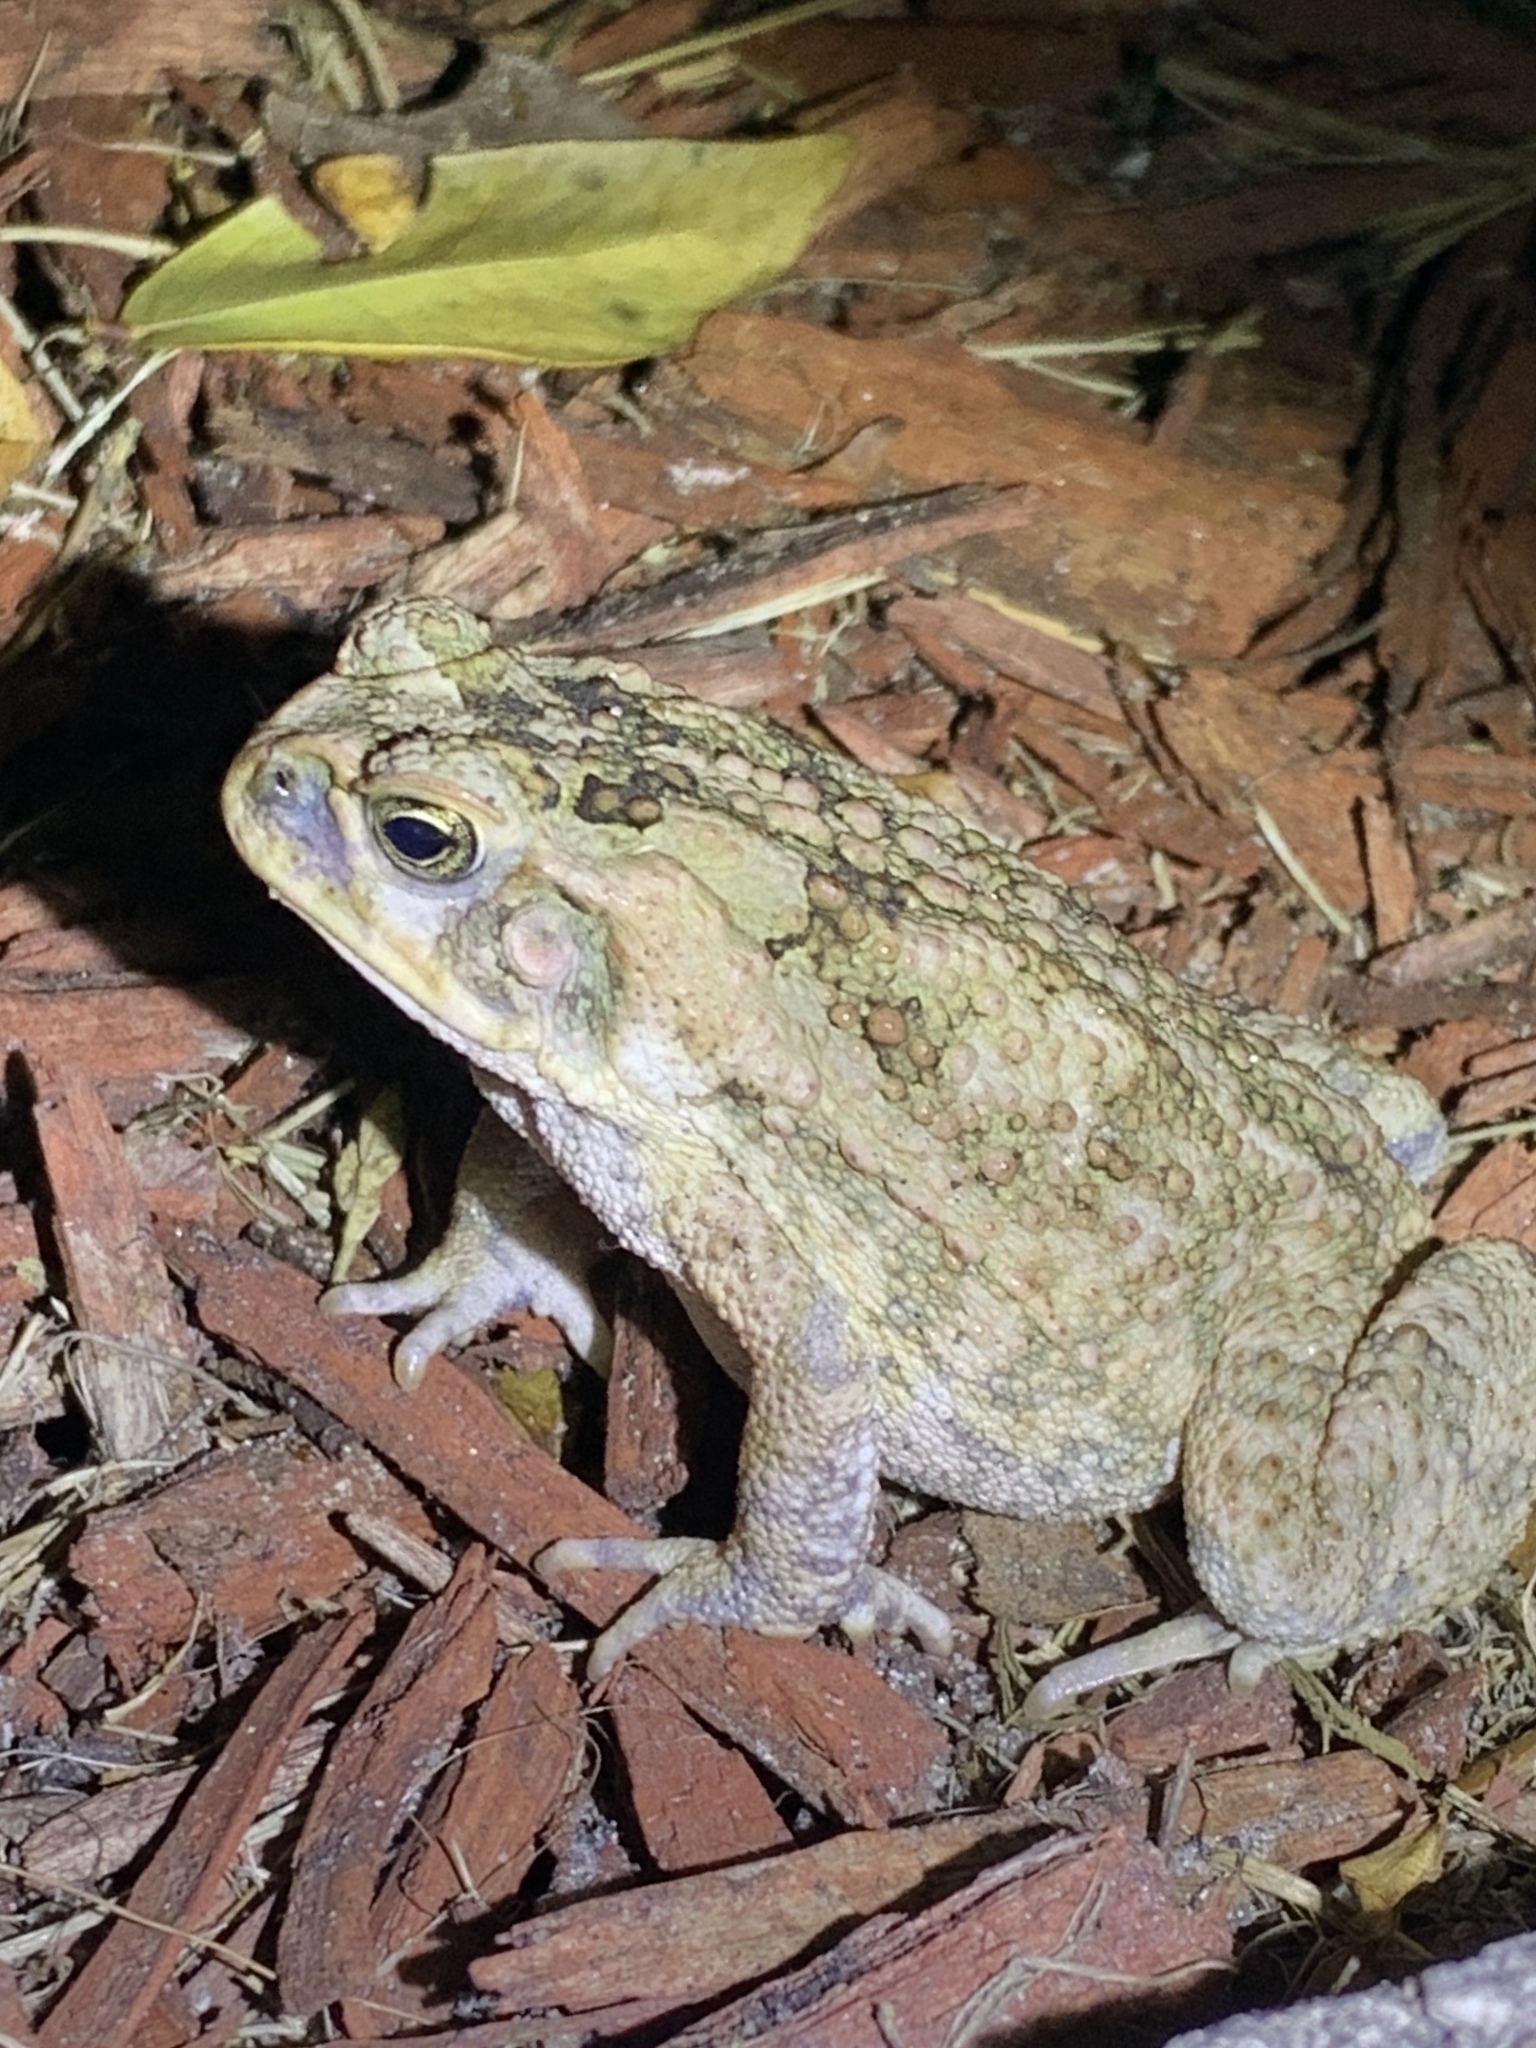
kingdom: Animalia
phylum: Chordata
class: Amphibia
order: Anura
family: Bufonidae
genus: Rhinella
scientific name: Rhinella marina
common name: Cane toad
